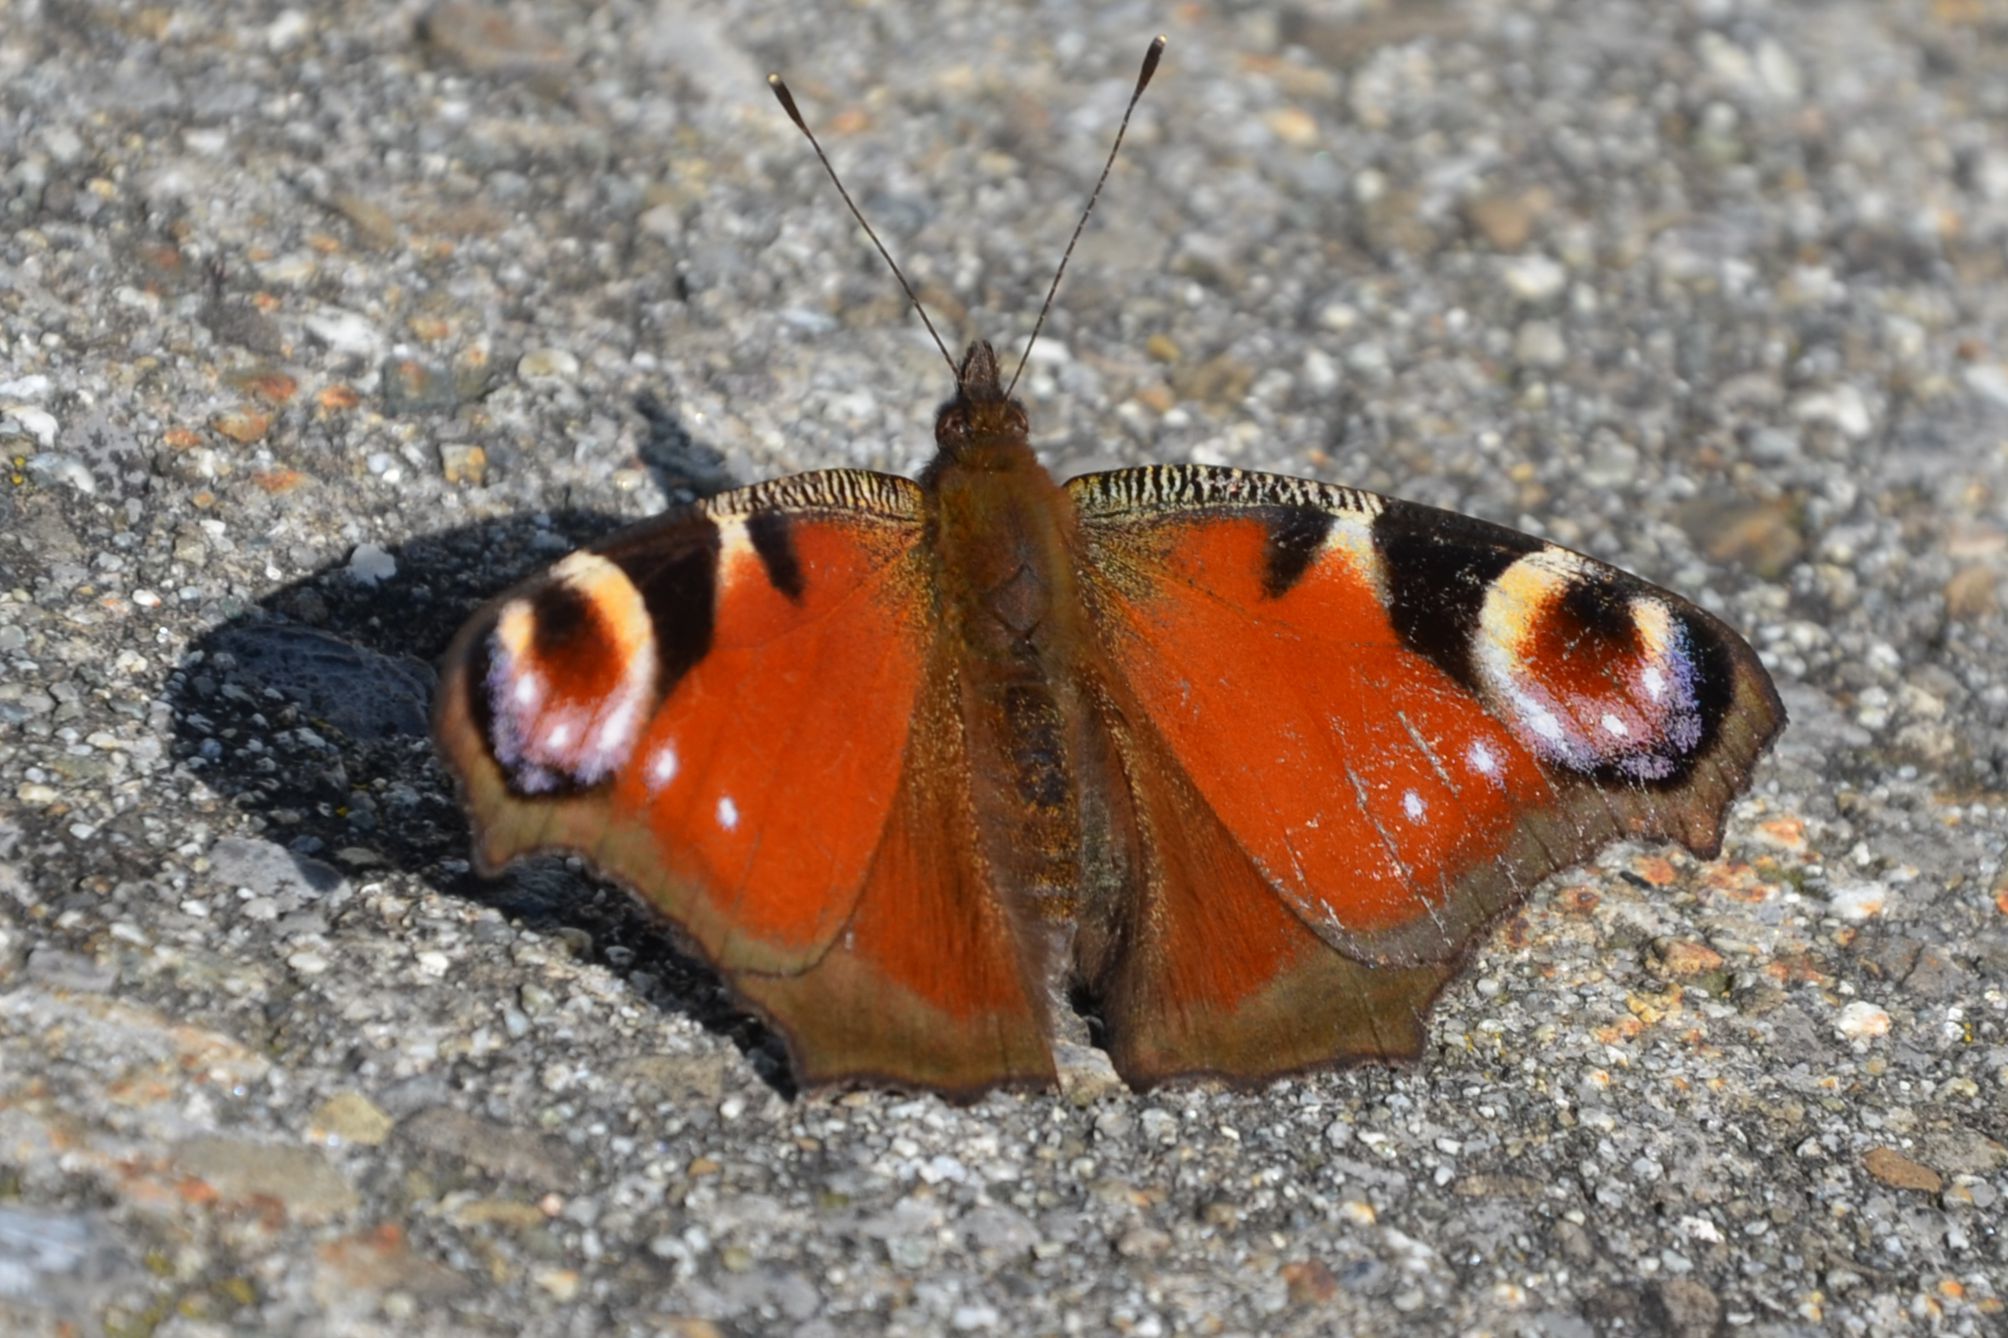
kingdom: Animalia
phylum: Arthropoda
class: Insecta
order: Lepidoptera
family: Nymphalidae
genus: Aglais
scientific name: Aglais io
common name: Peacock
